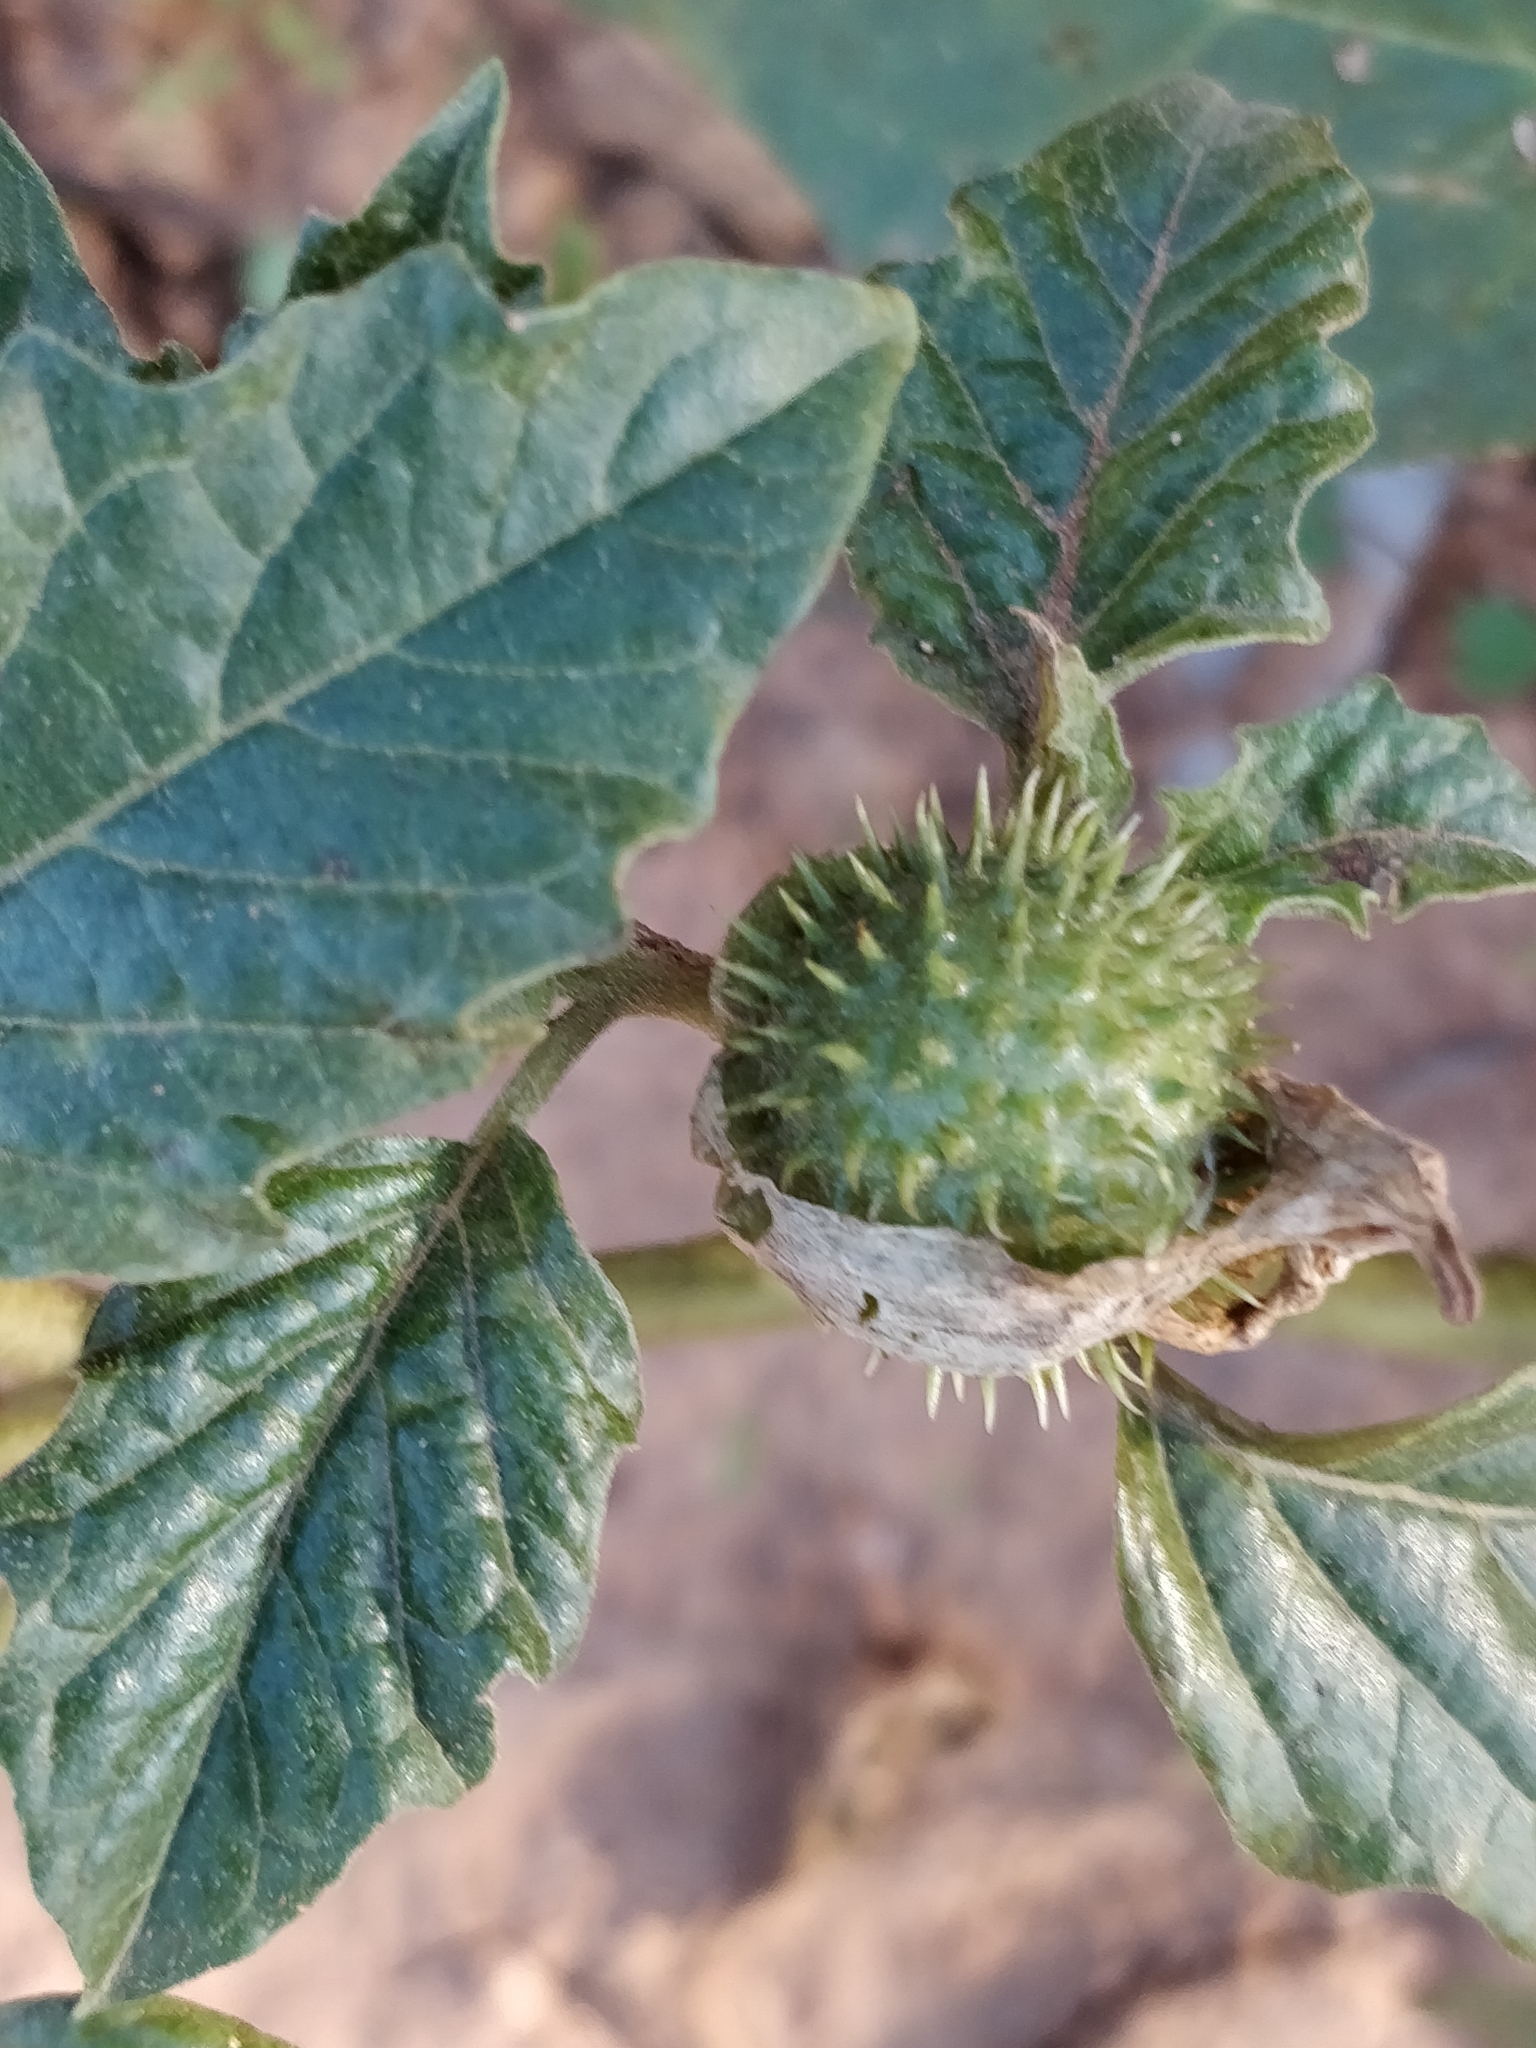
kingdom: Plantae
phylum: Tracheophyta
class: Magnoliopsida
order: Solanales
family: Solanaceae
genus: Datura
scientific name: Datura leichhardtii
